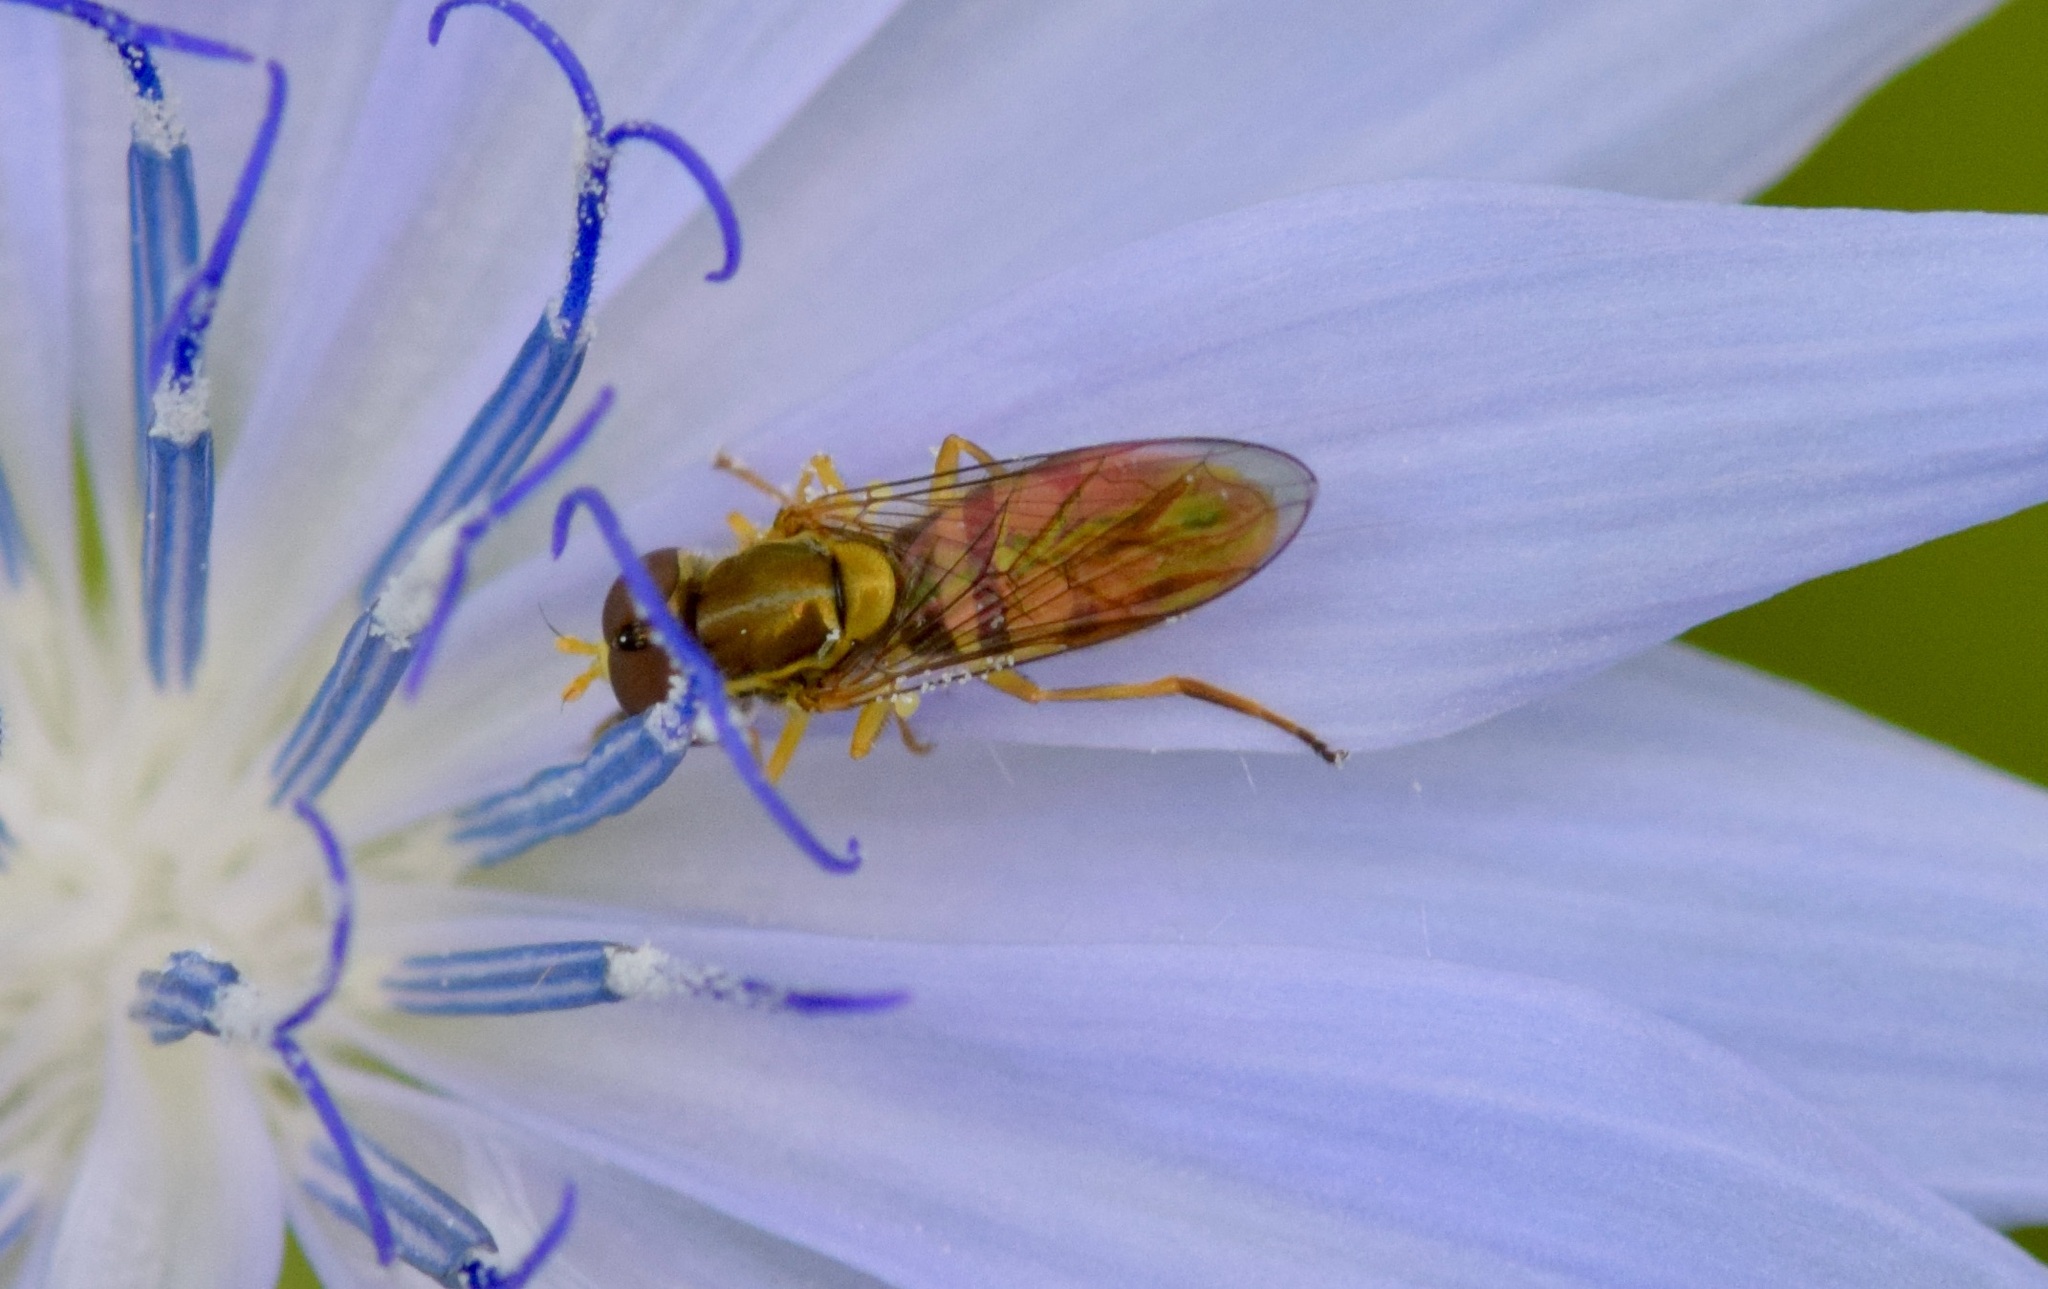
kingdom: Animalia
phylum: Arthropoda
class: Insecta
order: Diptera
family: Syrphidae
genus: Toxomerus
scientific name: Toxomerus marginatus
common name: Syrphid fly
